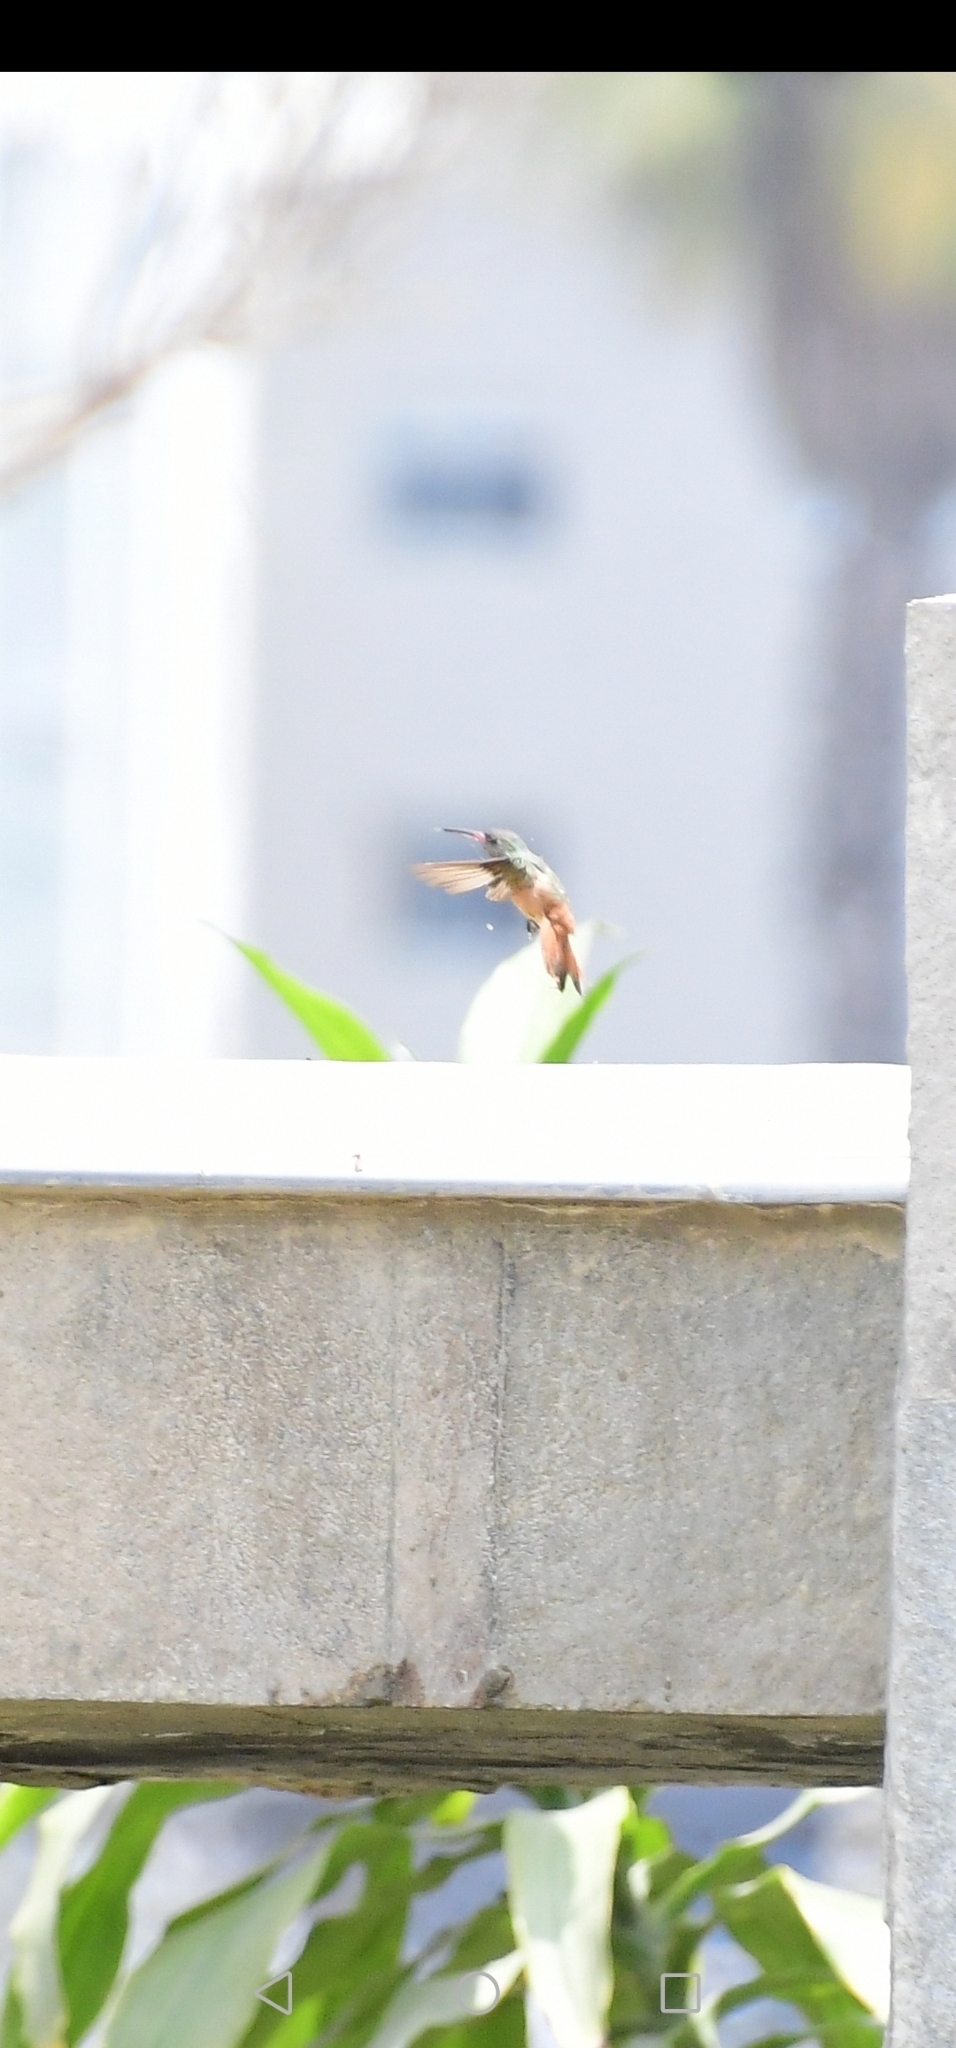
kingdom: Animalia
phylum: Chordata
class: Aves
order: Apodiformes
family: Trochilidae
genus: Amazilis
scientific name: Amazilis amazilia
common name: Amazilia hummingbird
